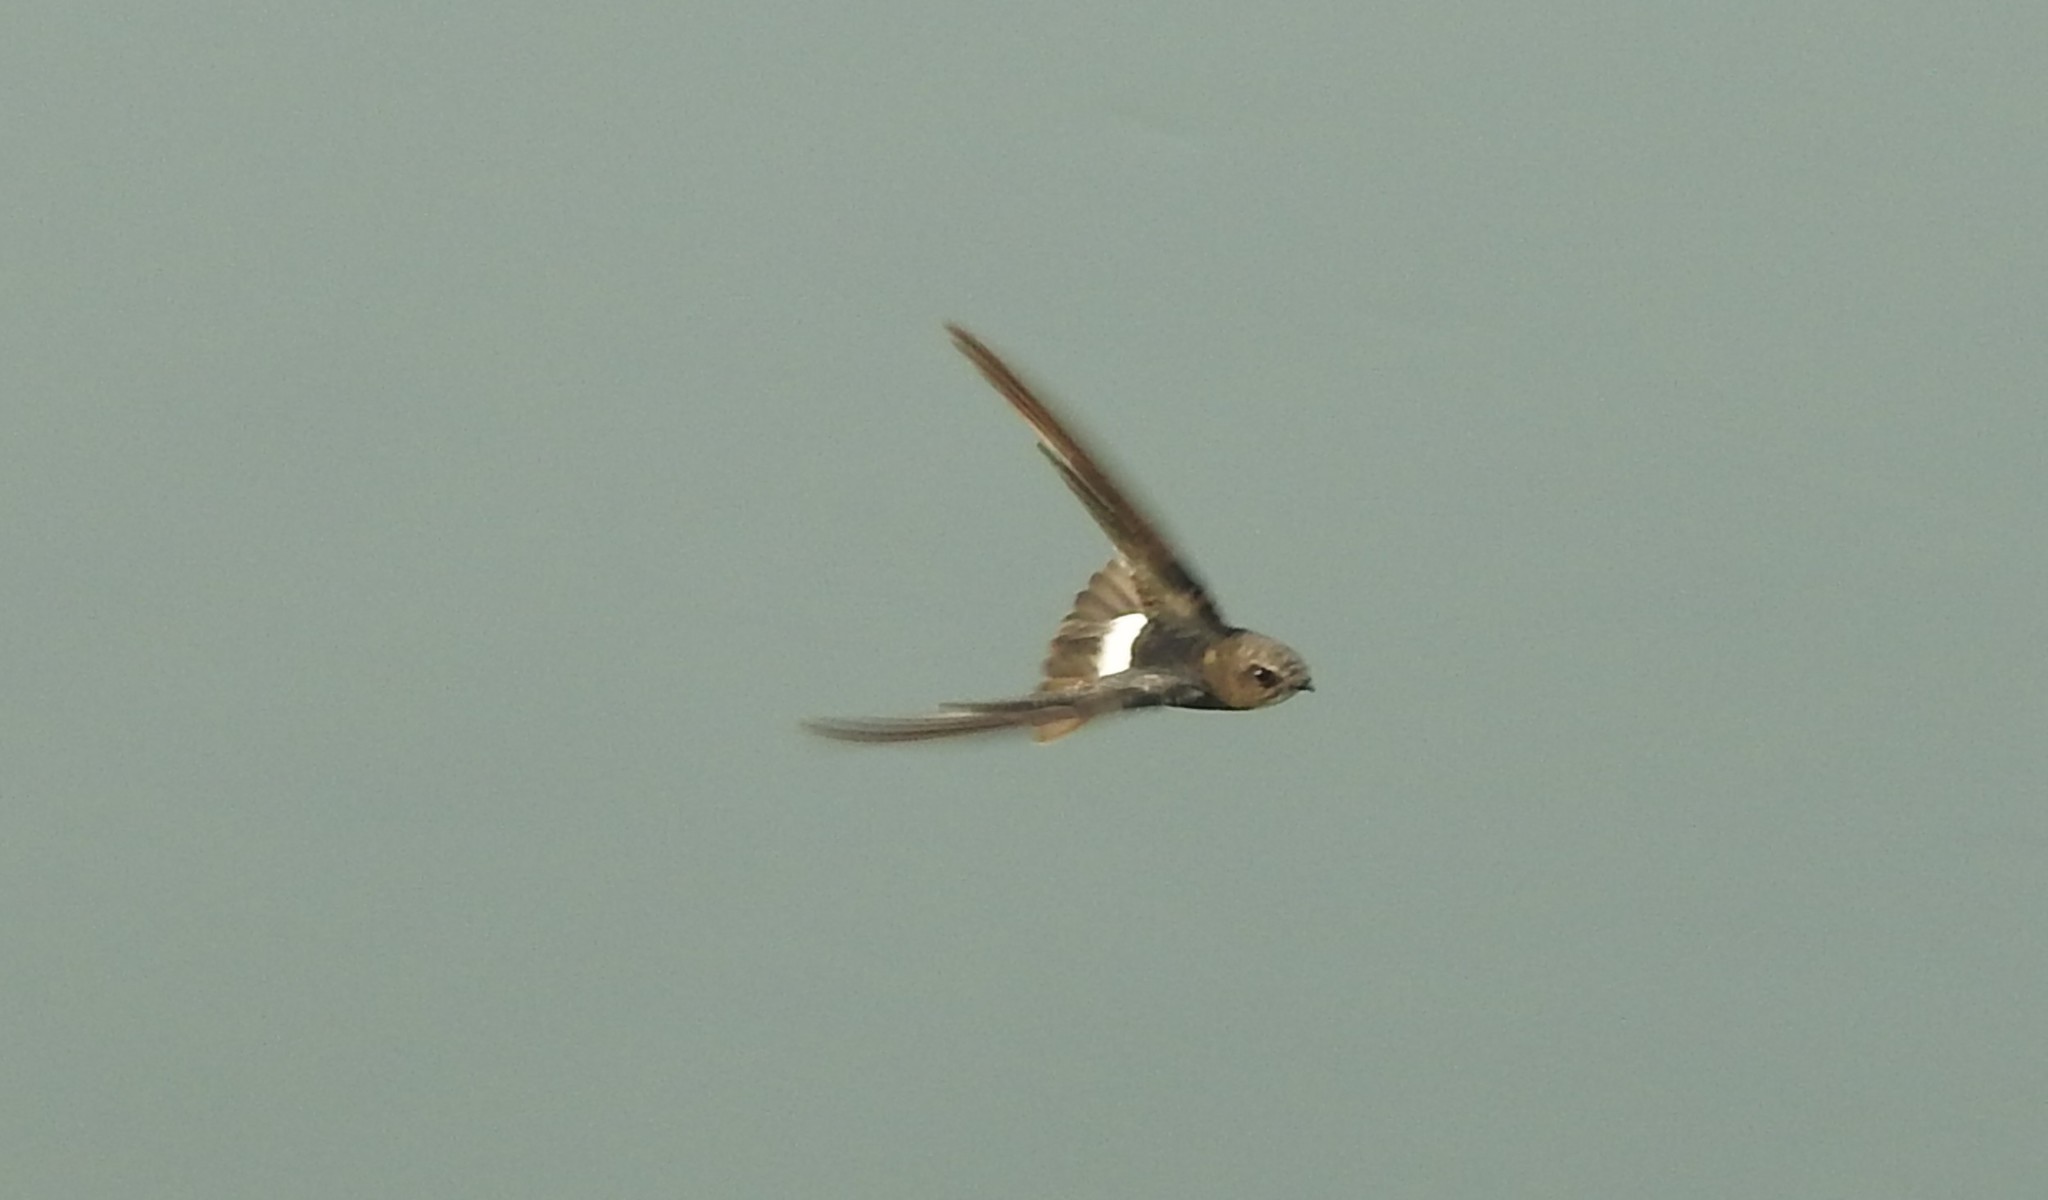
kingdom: Animalia
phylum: Chordata
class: Aves
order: Apodiformes
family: Apodidae
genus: Apus
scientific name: Apus affinis
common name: Little swift
